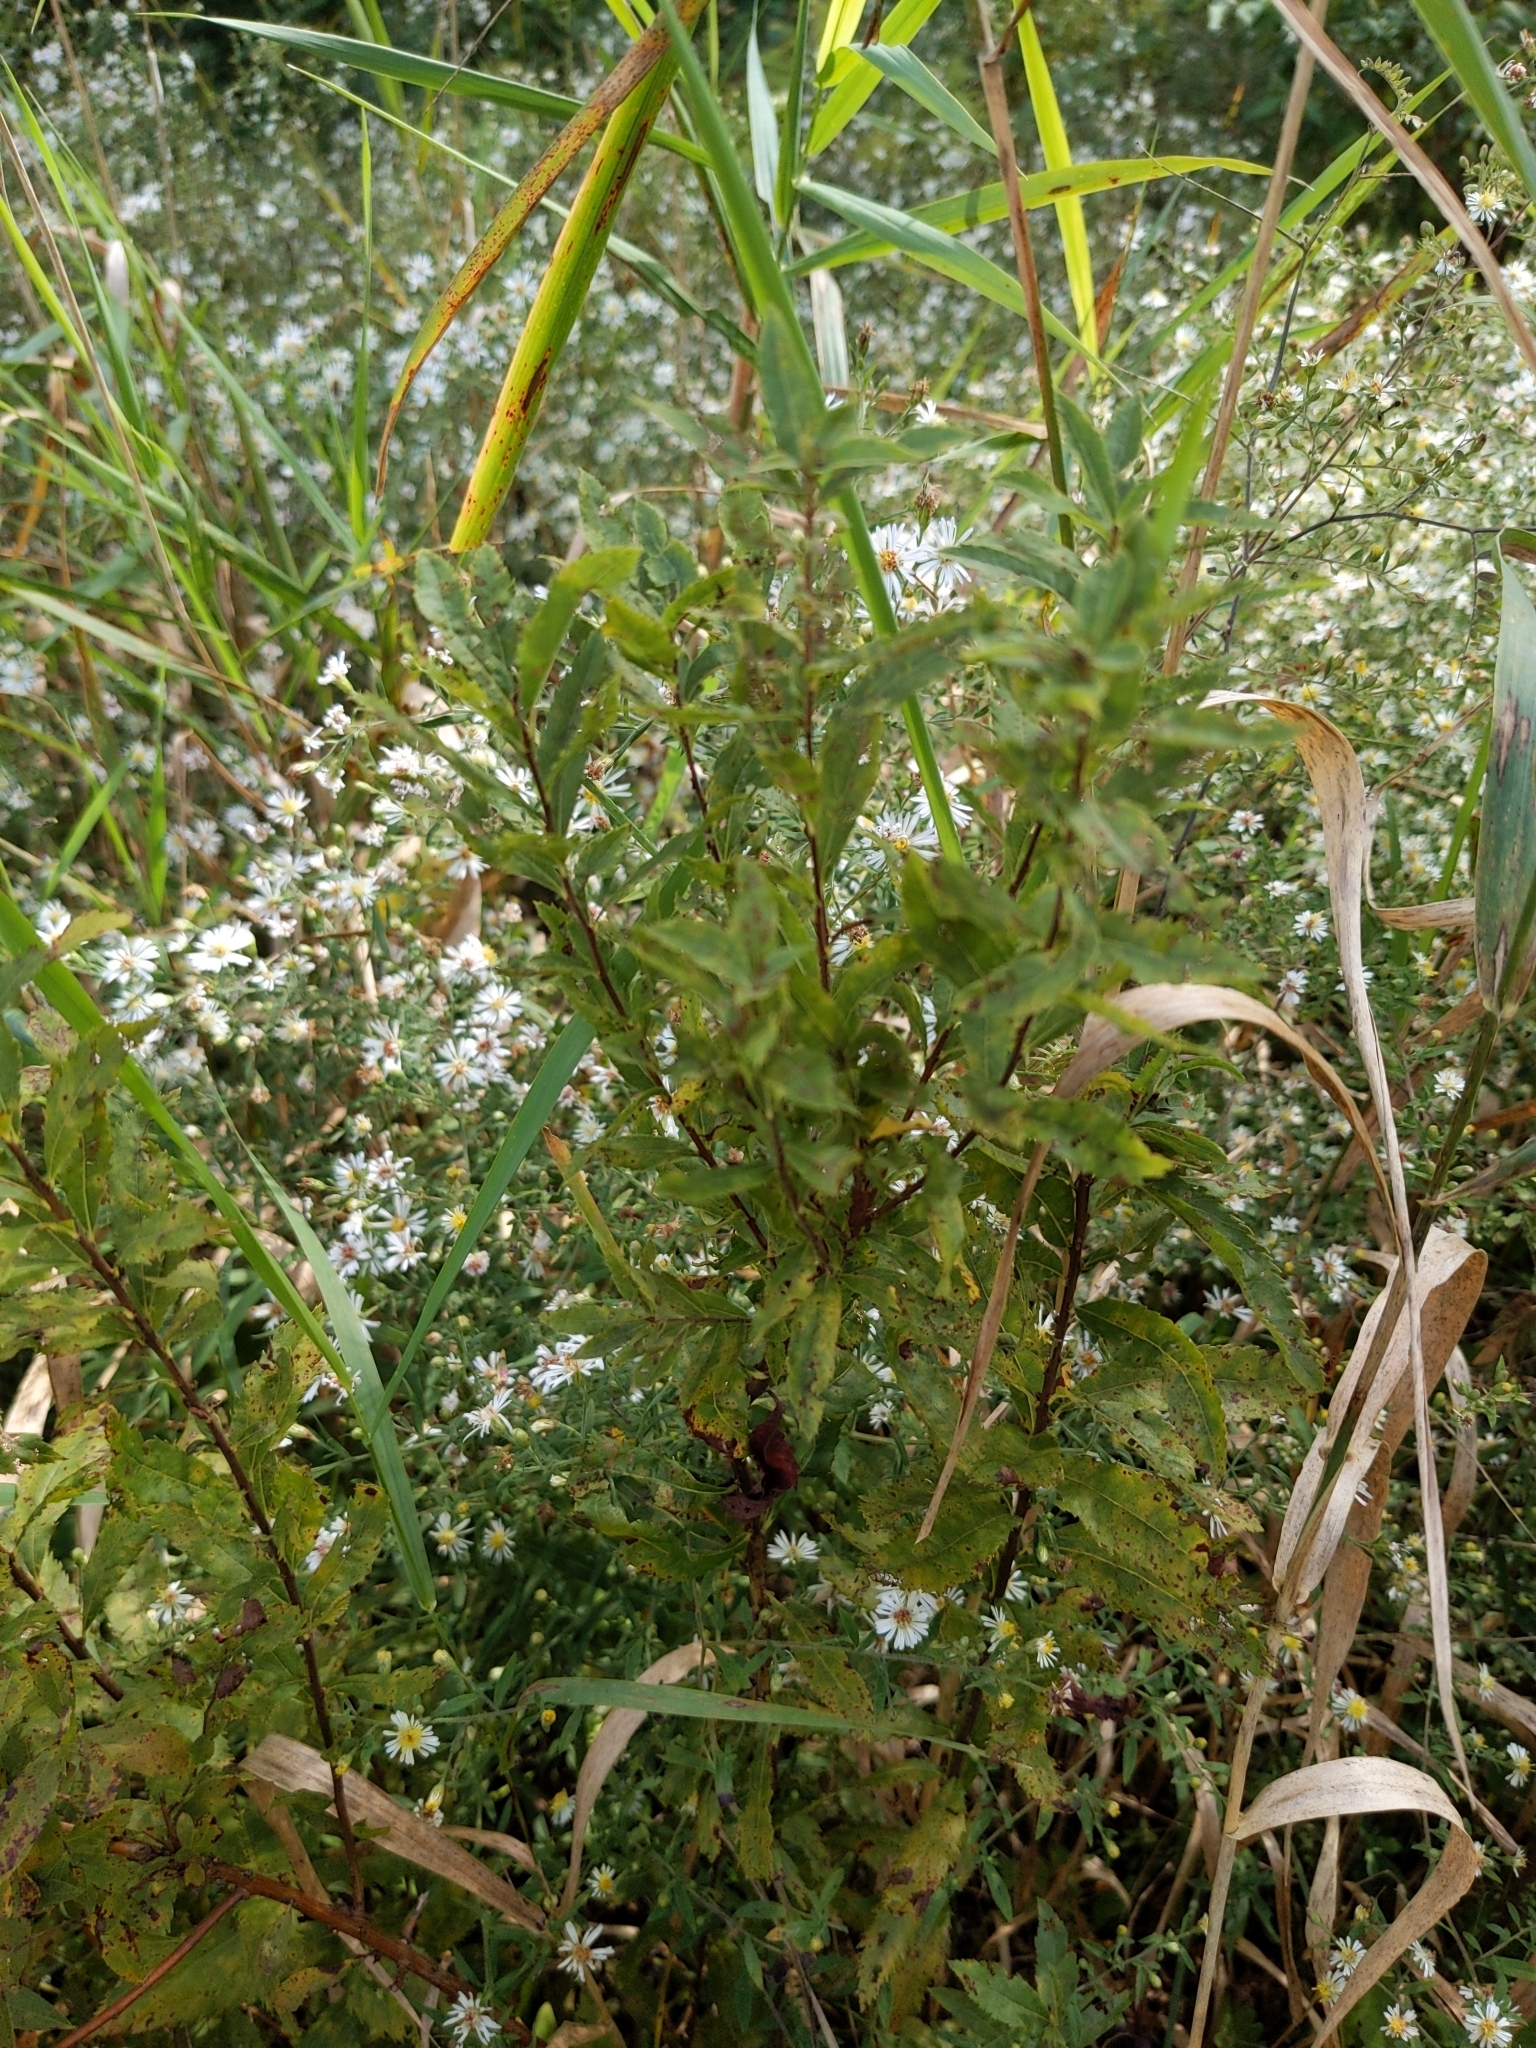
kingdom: Plantae
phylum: Tracheophyta
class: Magnoliopsida
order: Rosales
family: Rosaceae
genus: Spiraea
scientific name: Spiraea alba
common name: Pale bridewort
